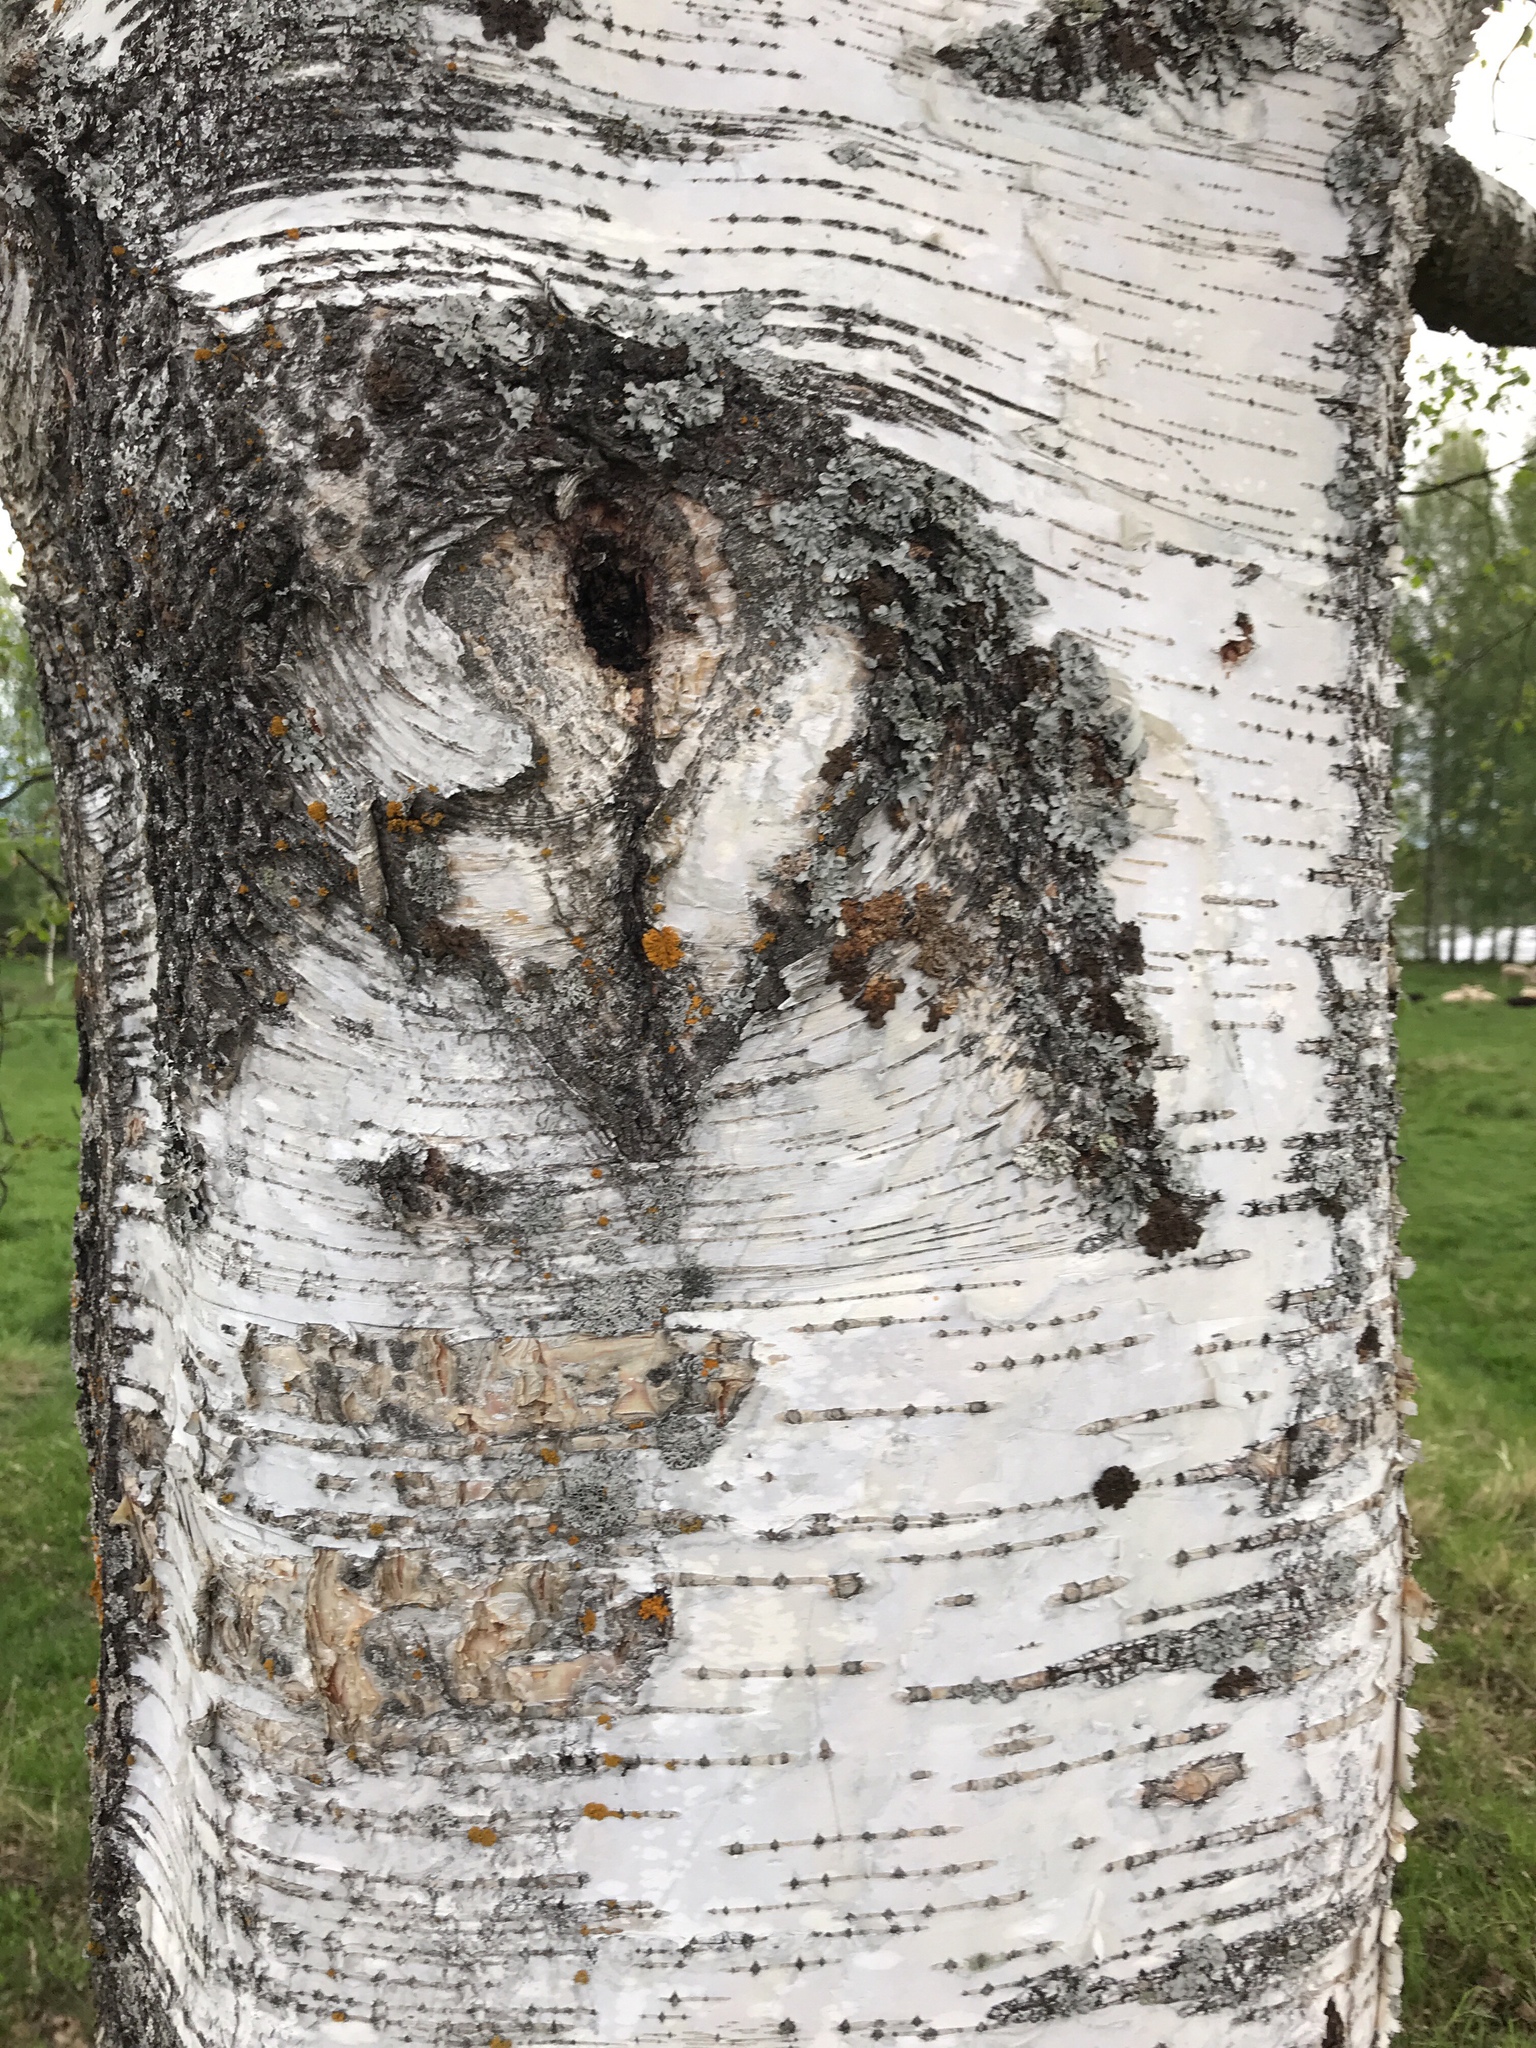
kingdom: Plantae
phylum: Tracheophyta
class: Magnoliopsida
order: Fagales
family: Betulaceae
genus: Betula
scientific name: Betula pendula
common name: Silver birch
